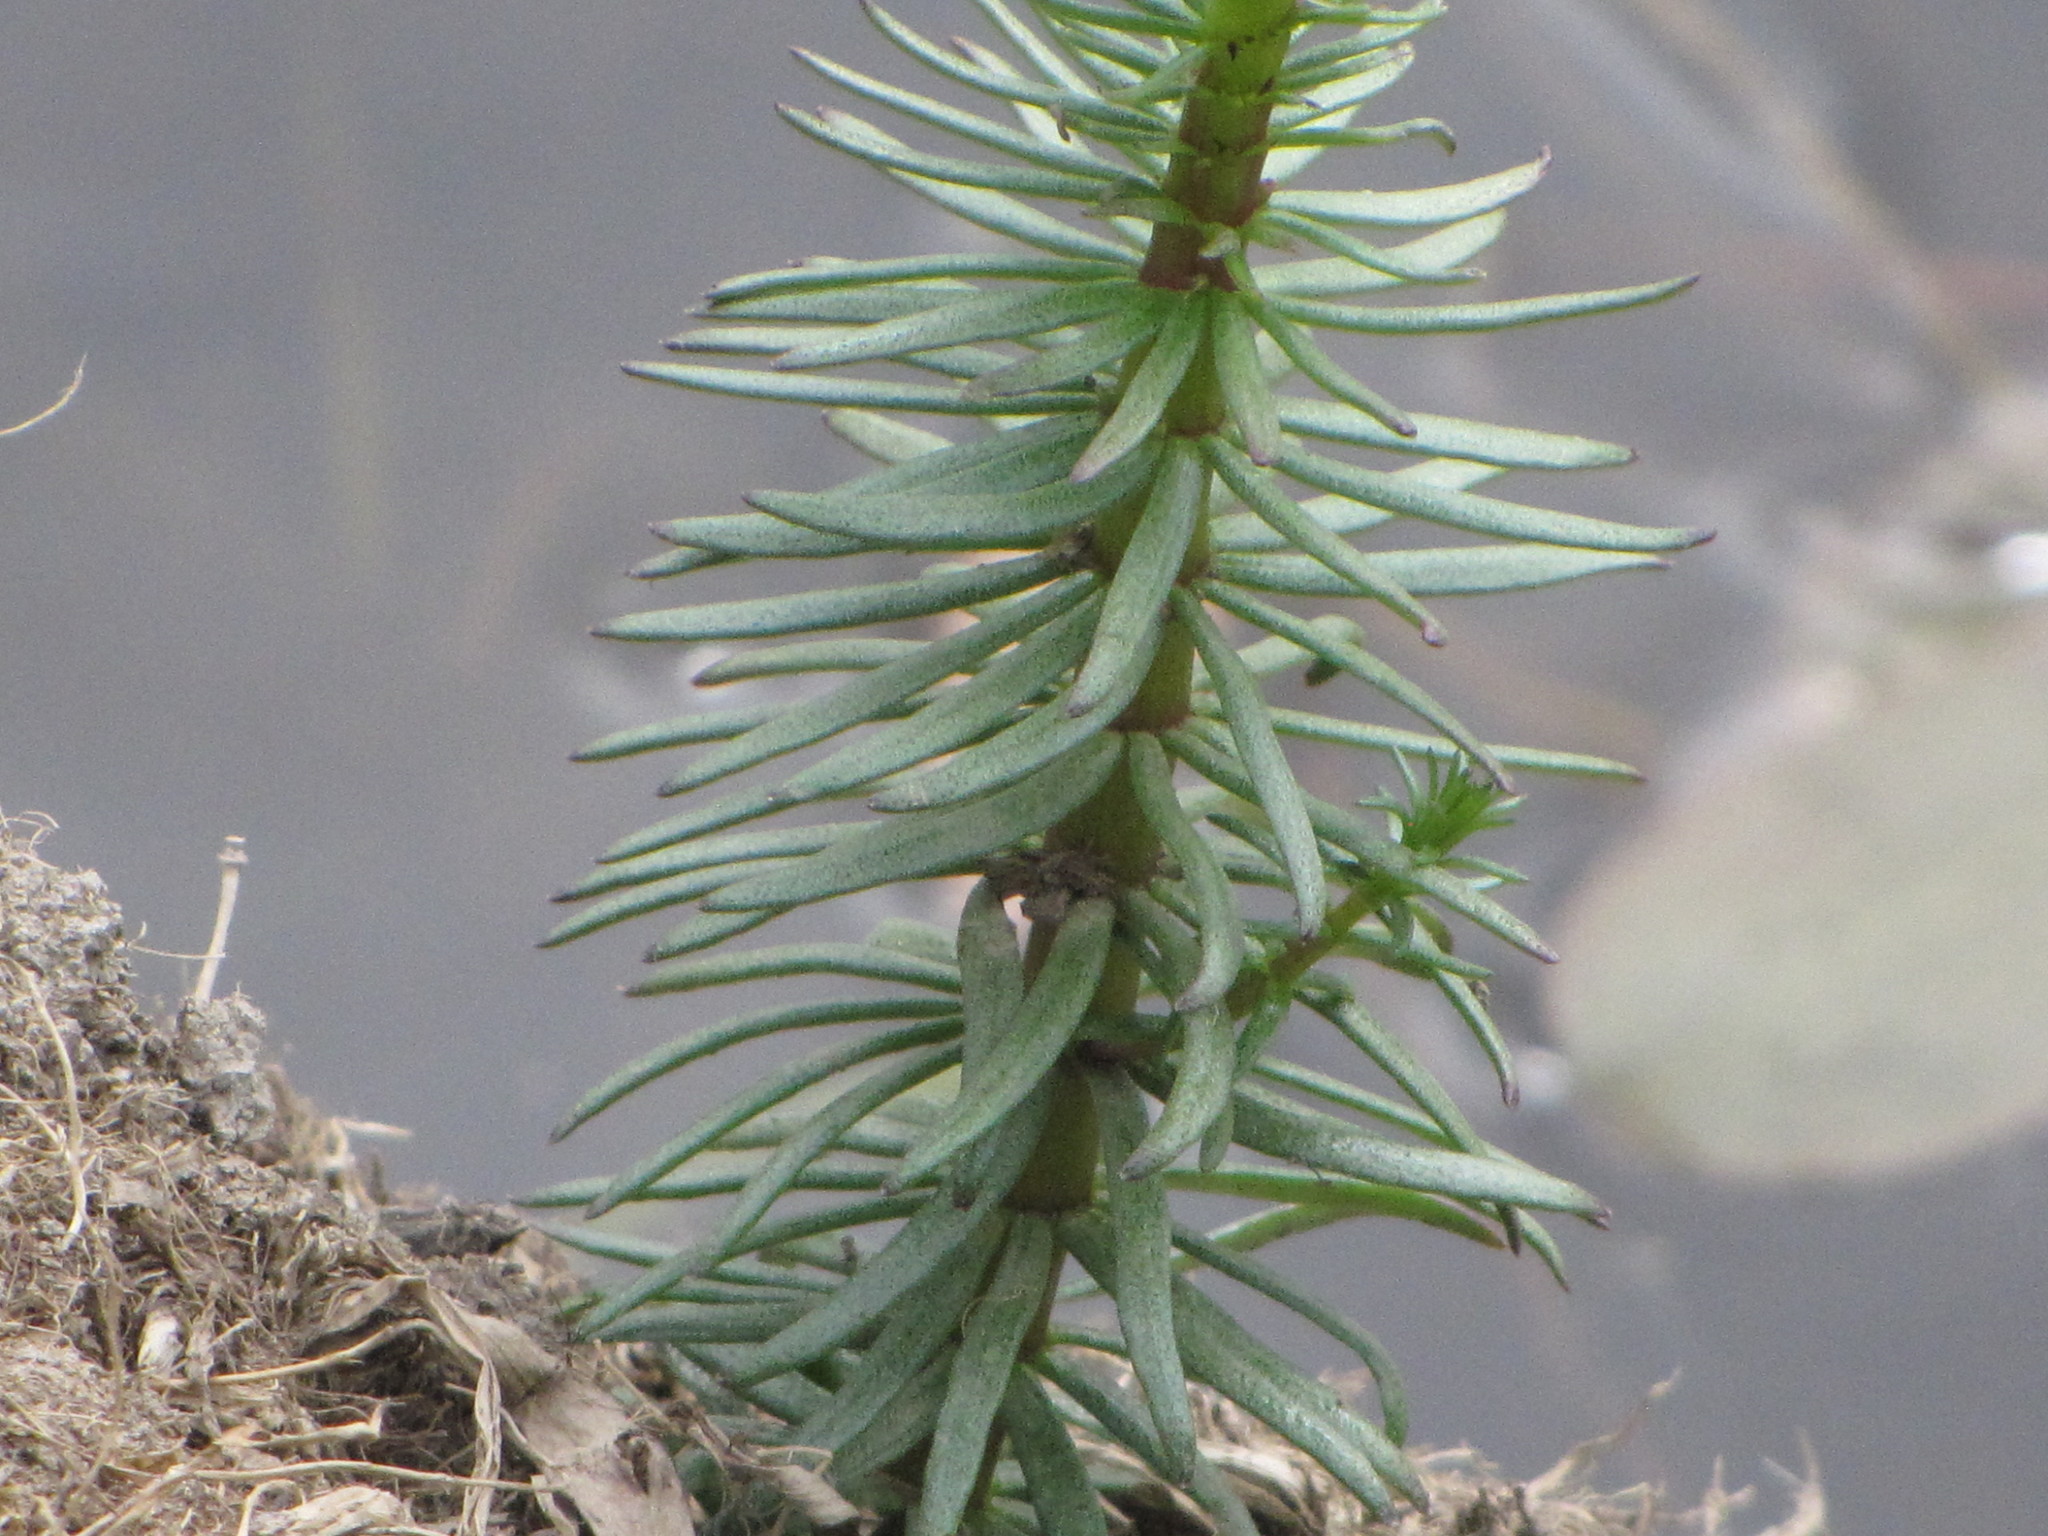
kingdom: Plantae
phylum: Tracheophyta
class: Magnoliopsida
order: Lamiales
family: Plantaginaceae
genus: Hippuris
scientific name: Hippuris vulgaris
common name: Mare's-tail
